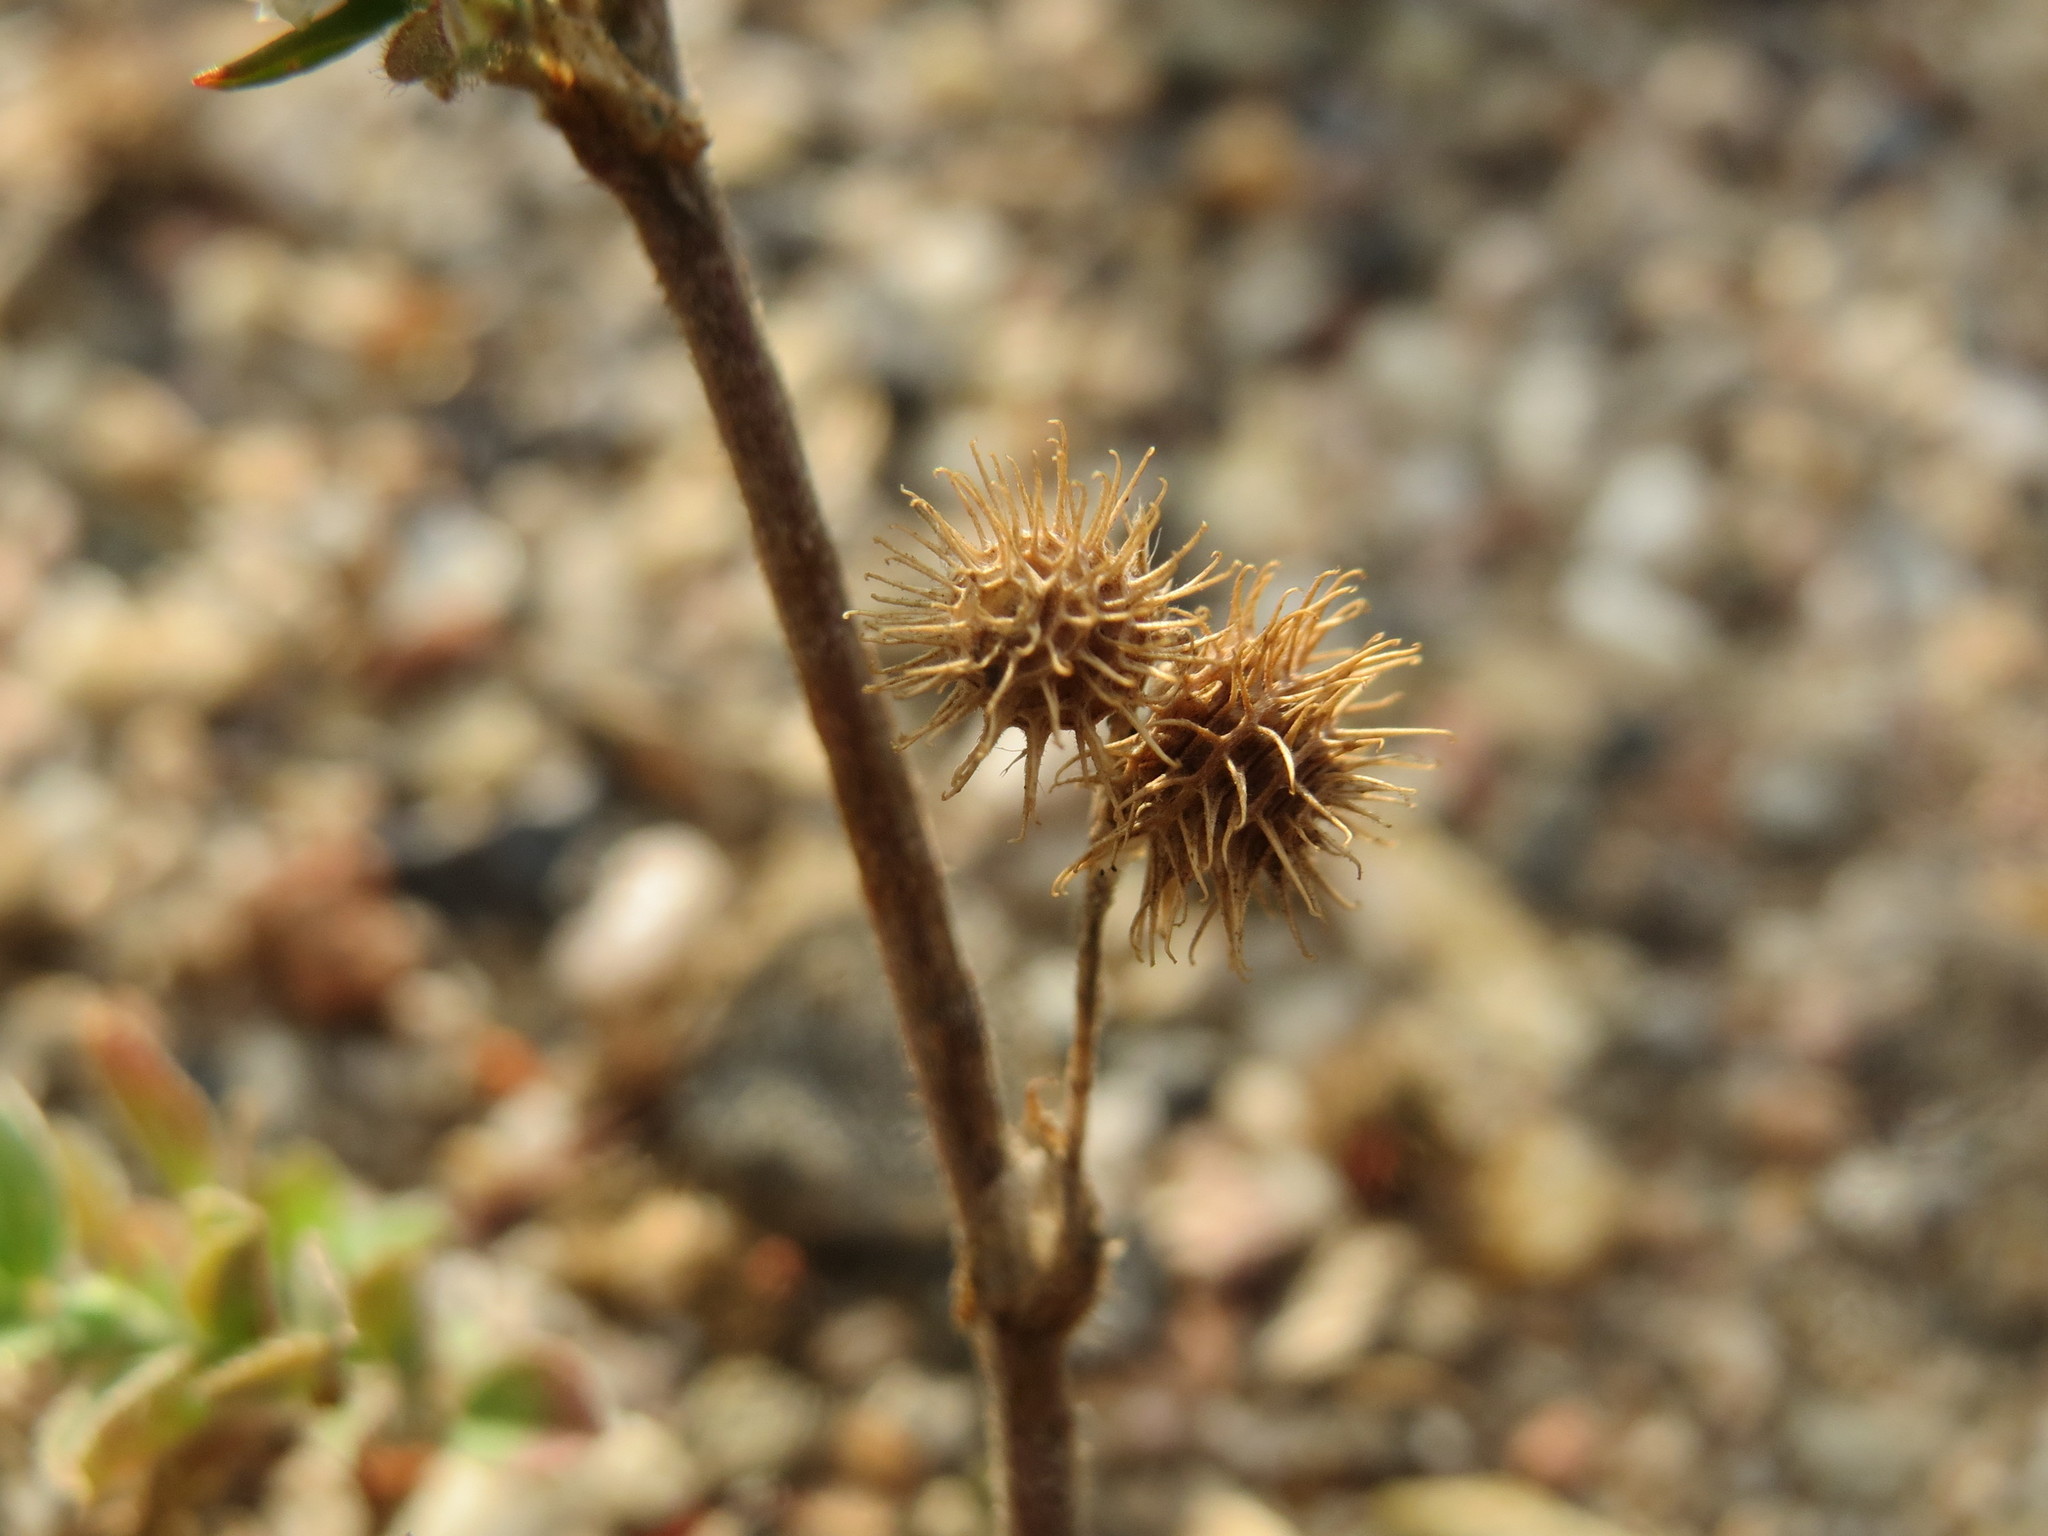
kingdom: Plantae
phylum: Tracheophyta
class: Magnoliopsida
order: Fabales
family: Fabaceae
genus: Medicago
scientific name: Medicago minima
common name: Little bur-clover
